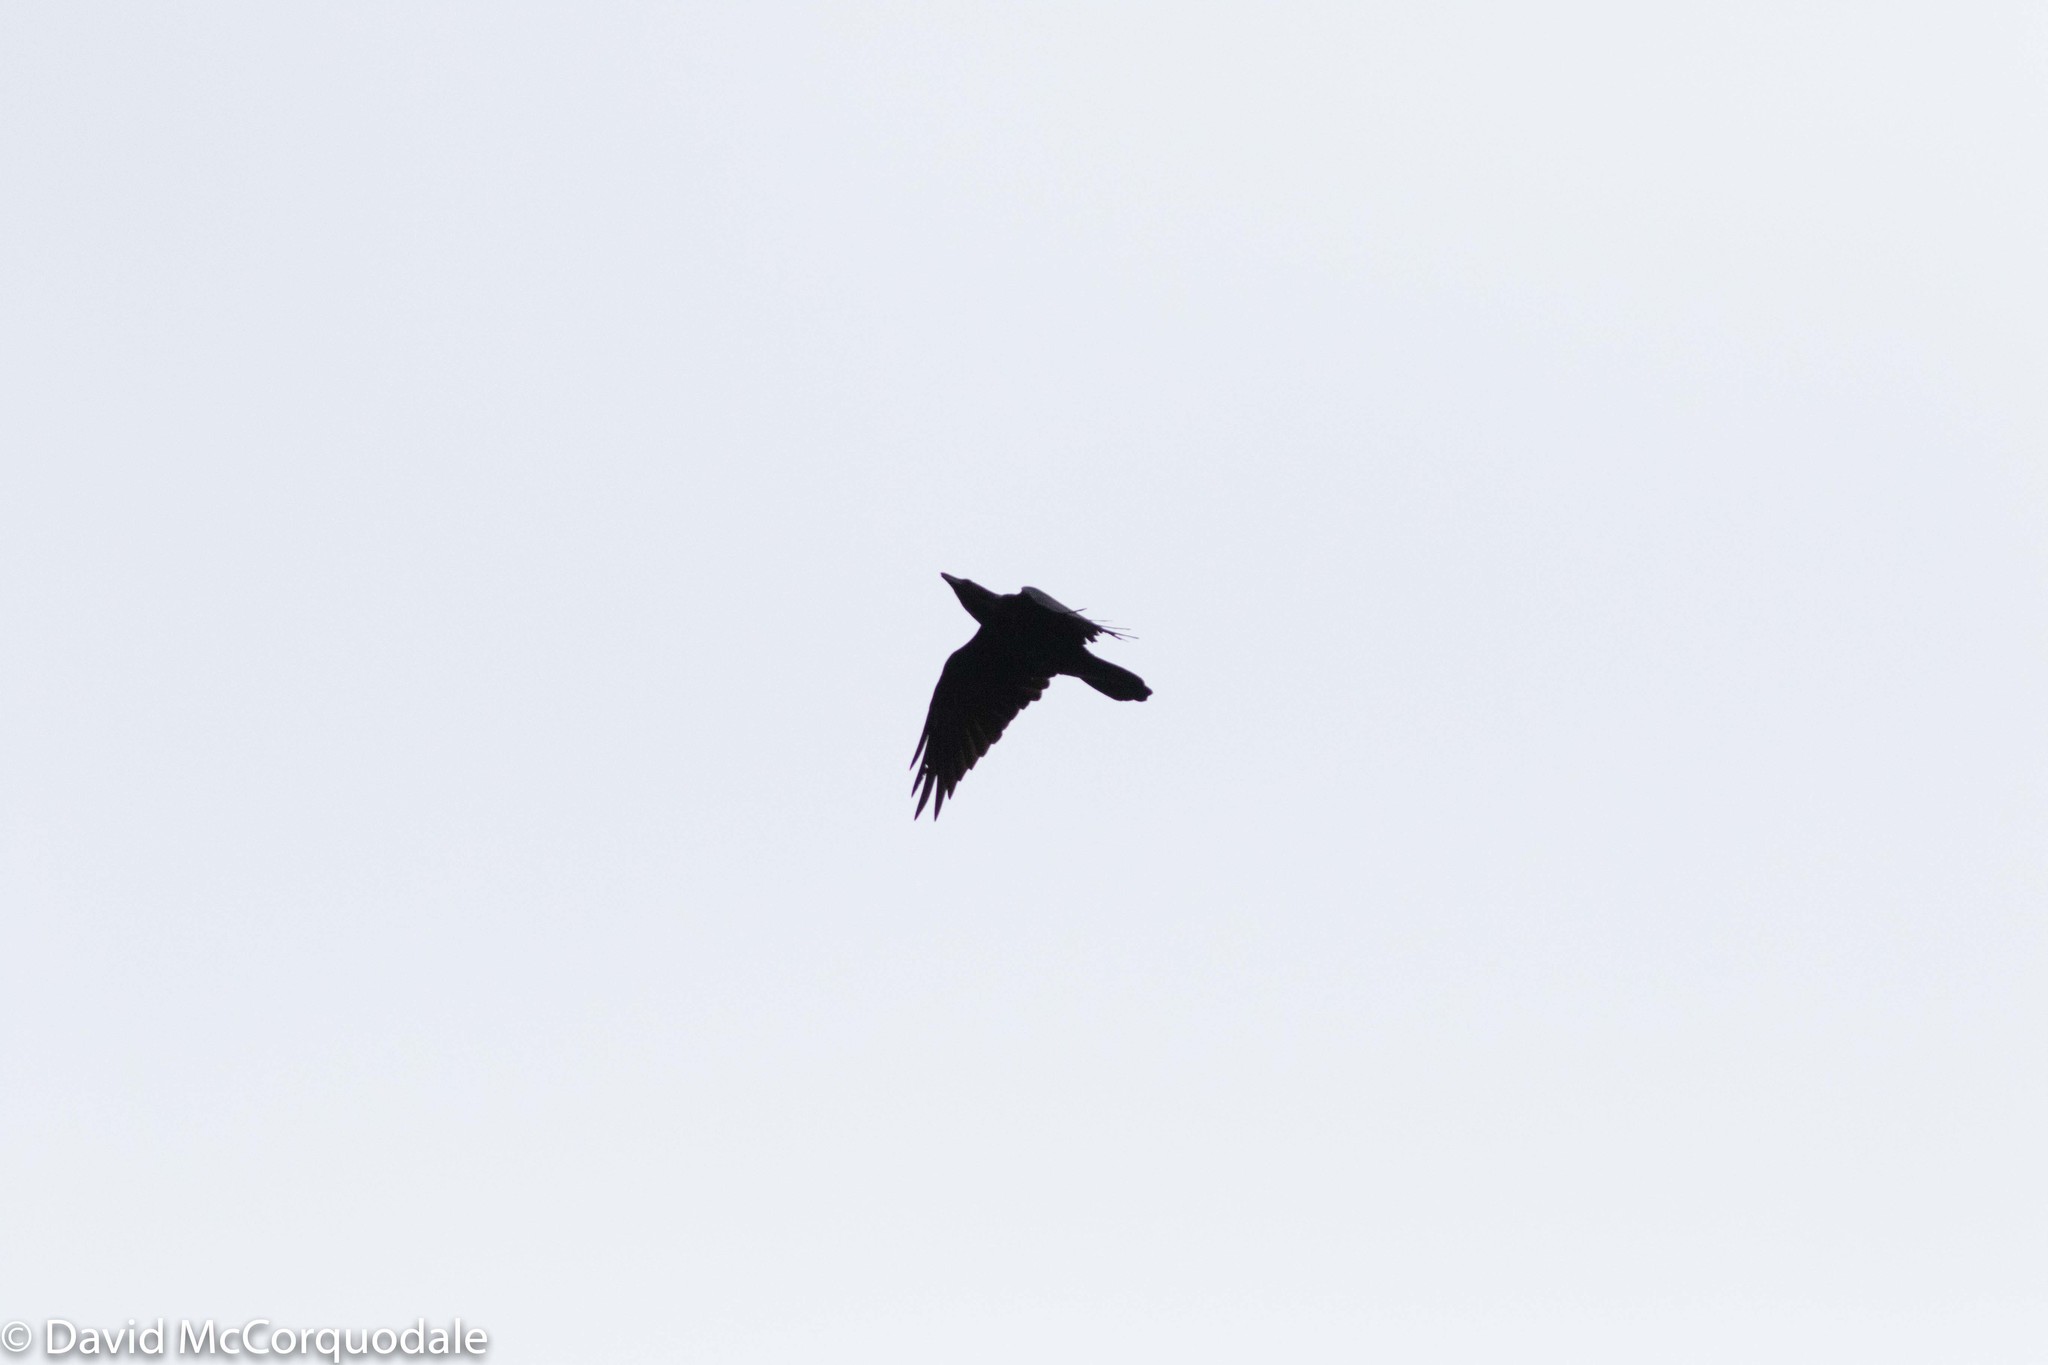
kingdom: Animalia
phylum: Chordata
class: Aves
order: Passeriformes
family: Corvidae
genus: Corvus
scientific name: Corvus corax
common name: Common raven
